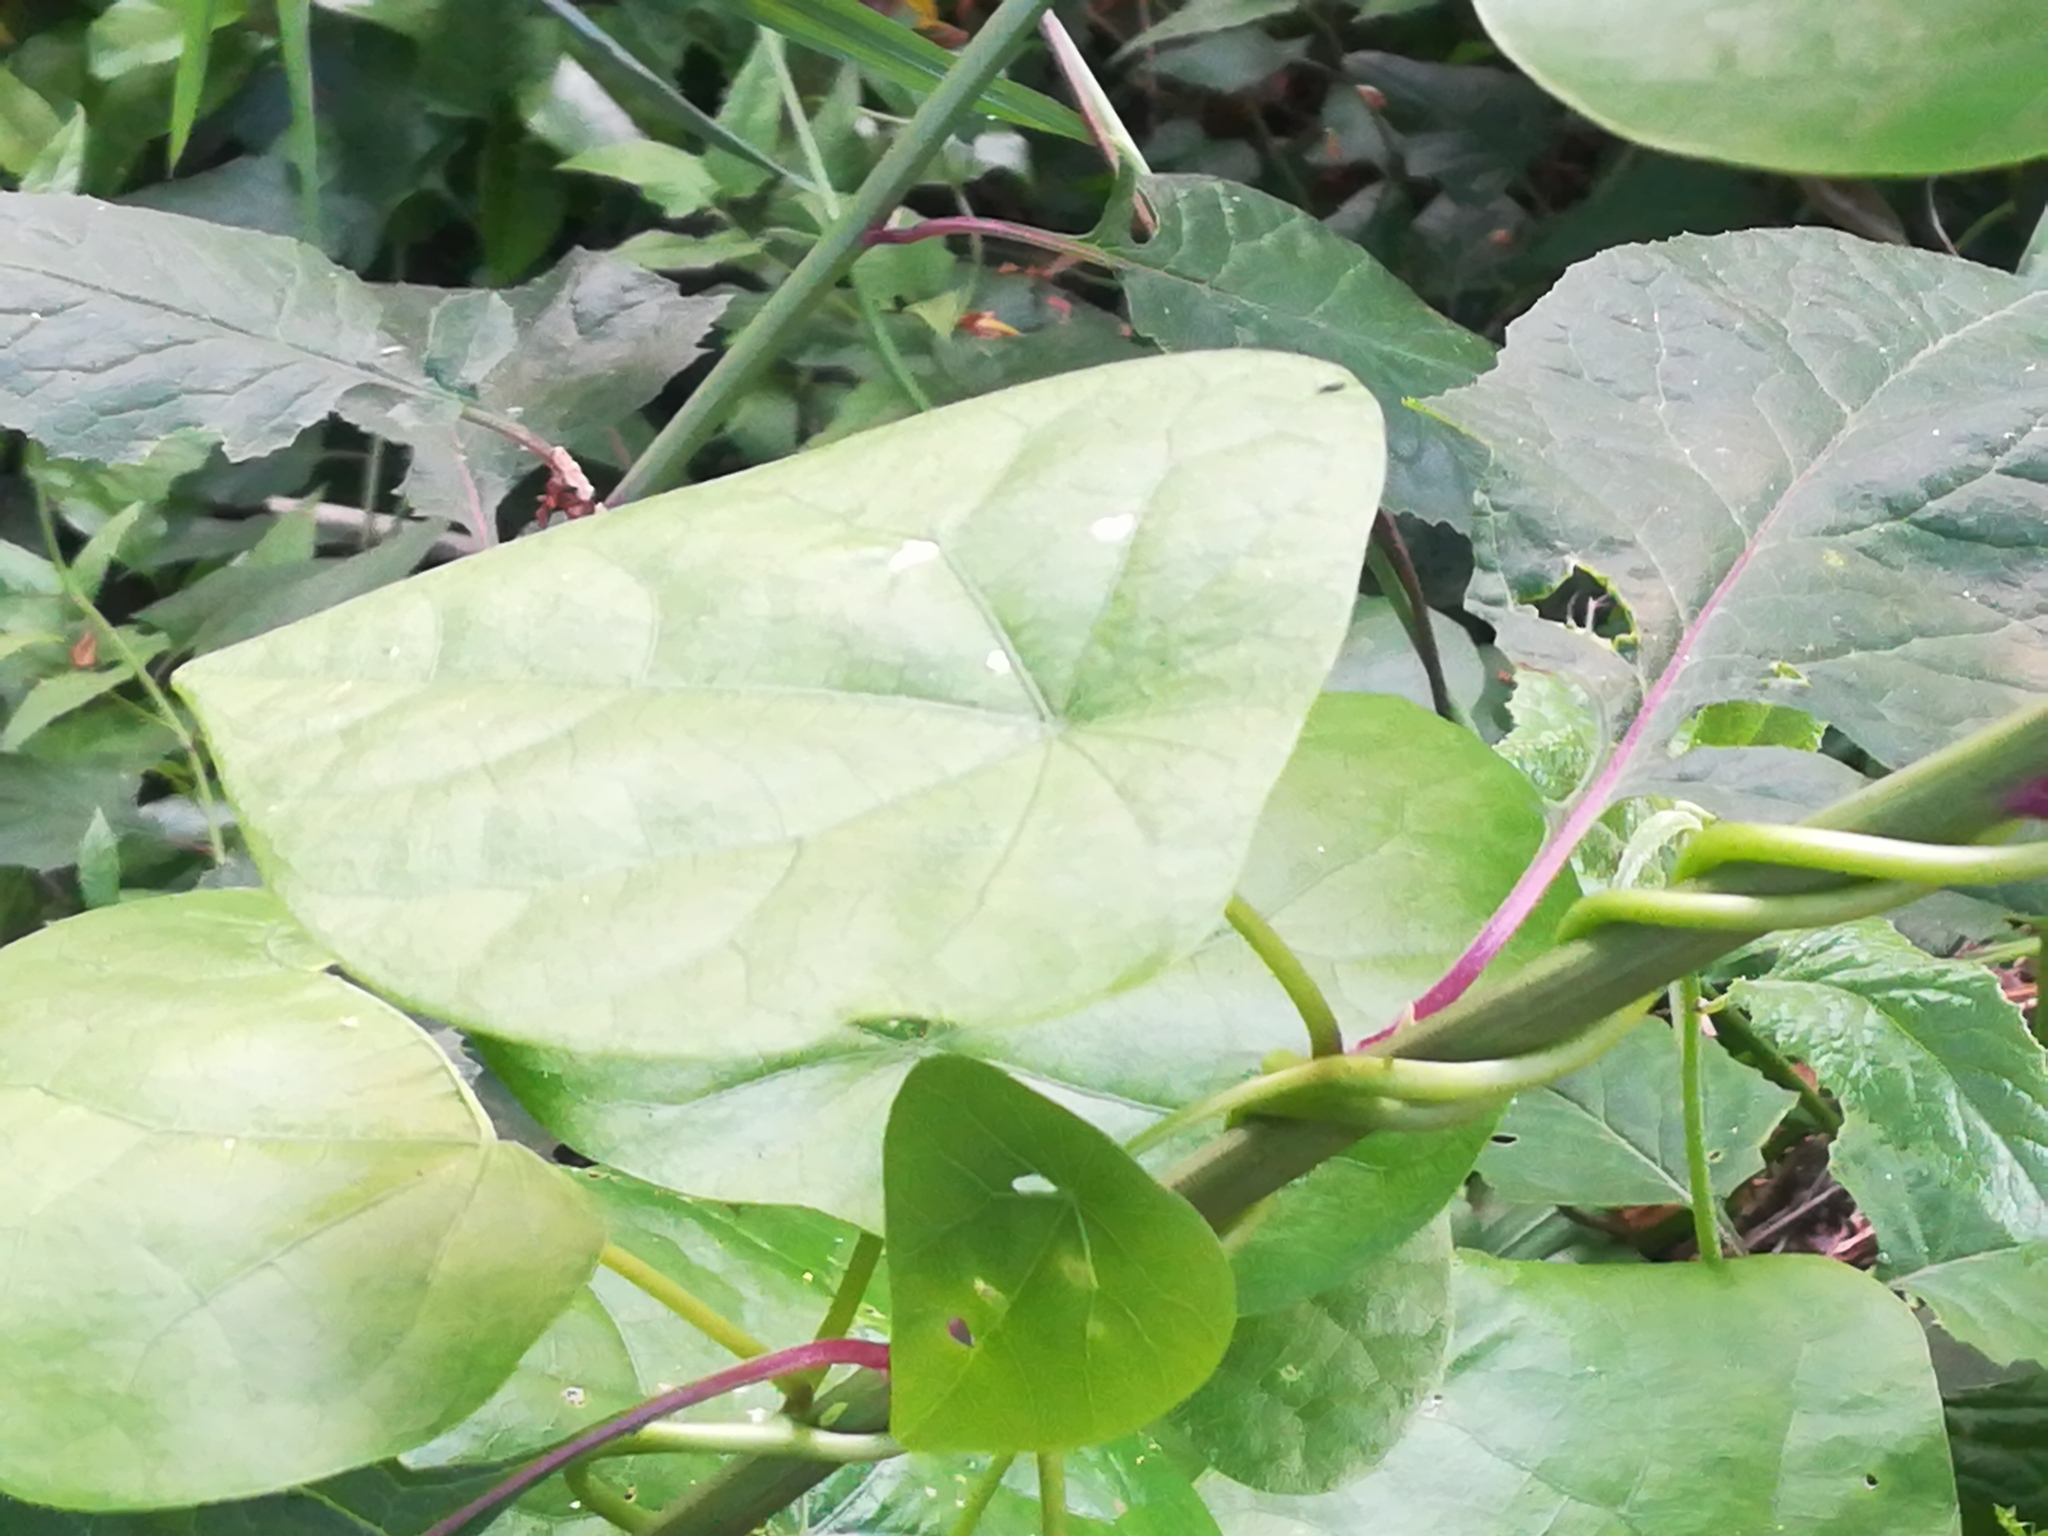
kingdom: Plantae
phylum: Tracheophyta
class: Magnoliopsida
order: Ranunculales
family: Menispermaceae
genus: Stephania
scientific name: Stephania japonica
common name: Snake vine
